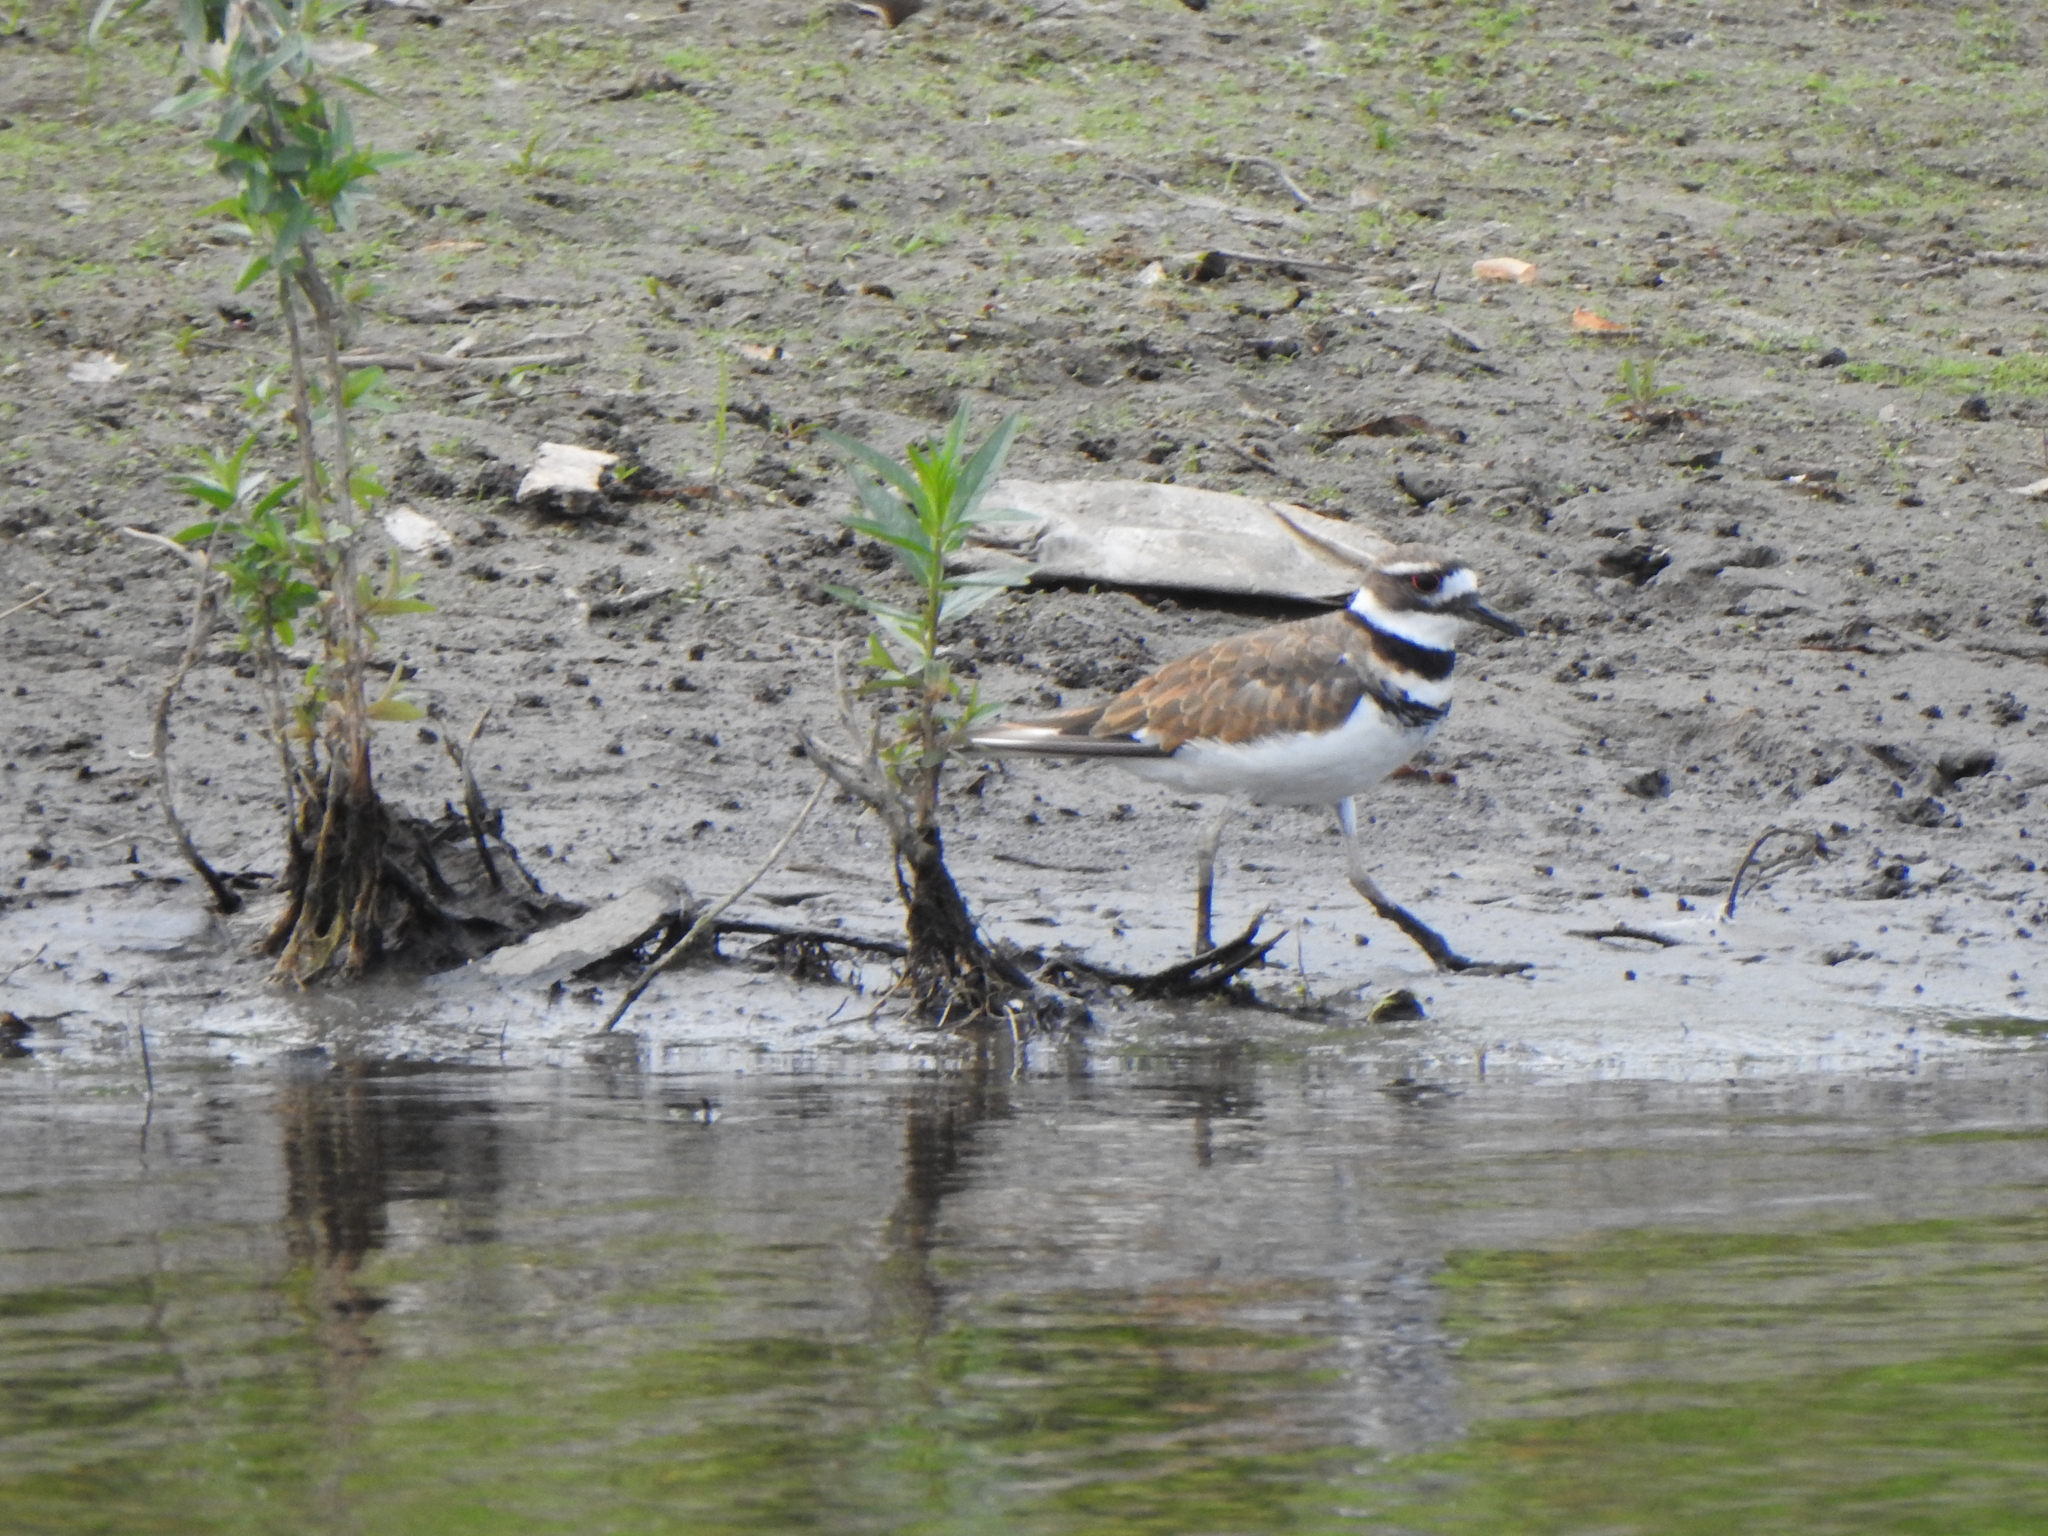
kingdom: Animalia
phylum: Chordata
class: Aves
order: Charadriiformes
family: Charadriidae
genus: Charadrius
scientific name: Charadrius vociferus
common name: Killdeer
